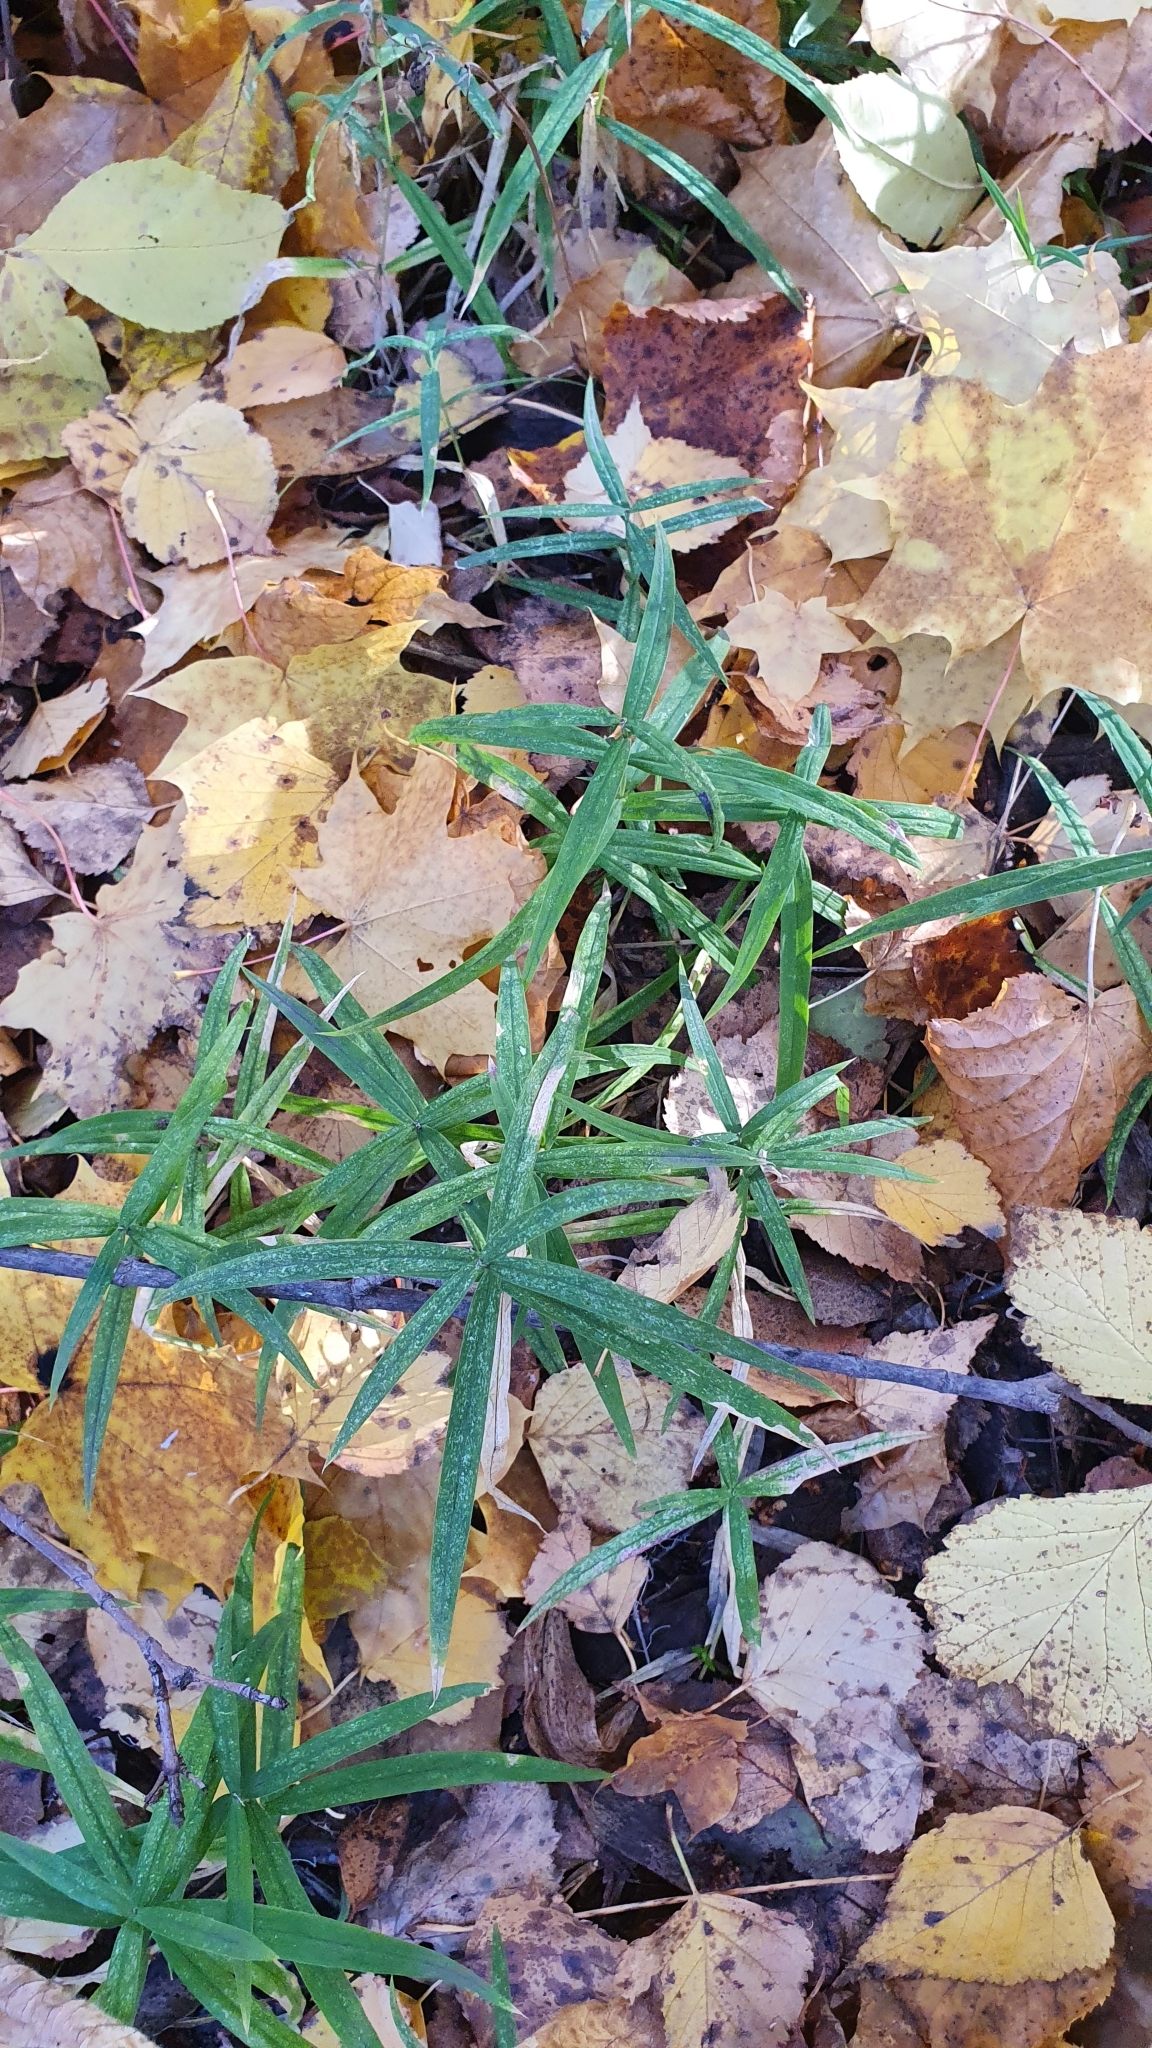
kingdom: Plantae
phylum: Tracheophyta
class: Magnoliopsida
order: Caryophyllales
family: Caryophyllaceae
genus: Rabelera
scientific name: Rabelera holostea
